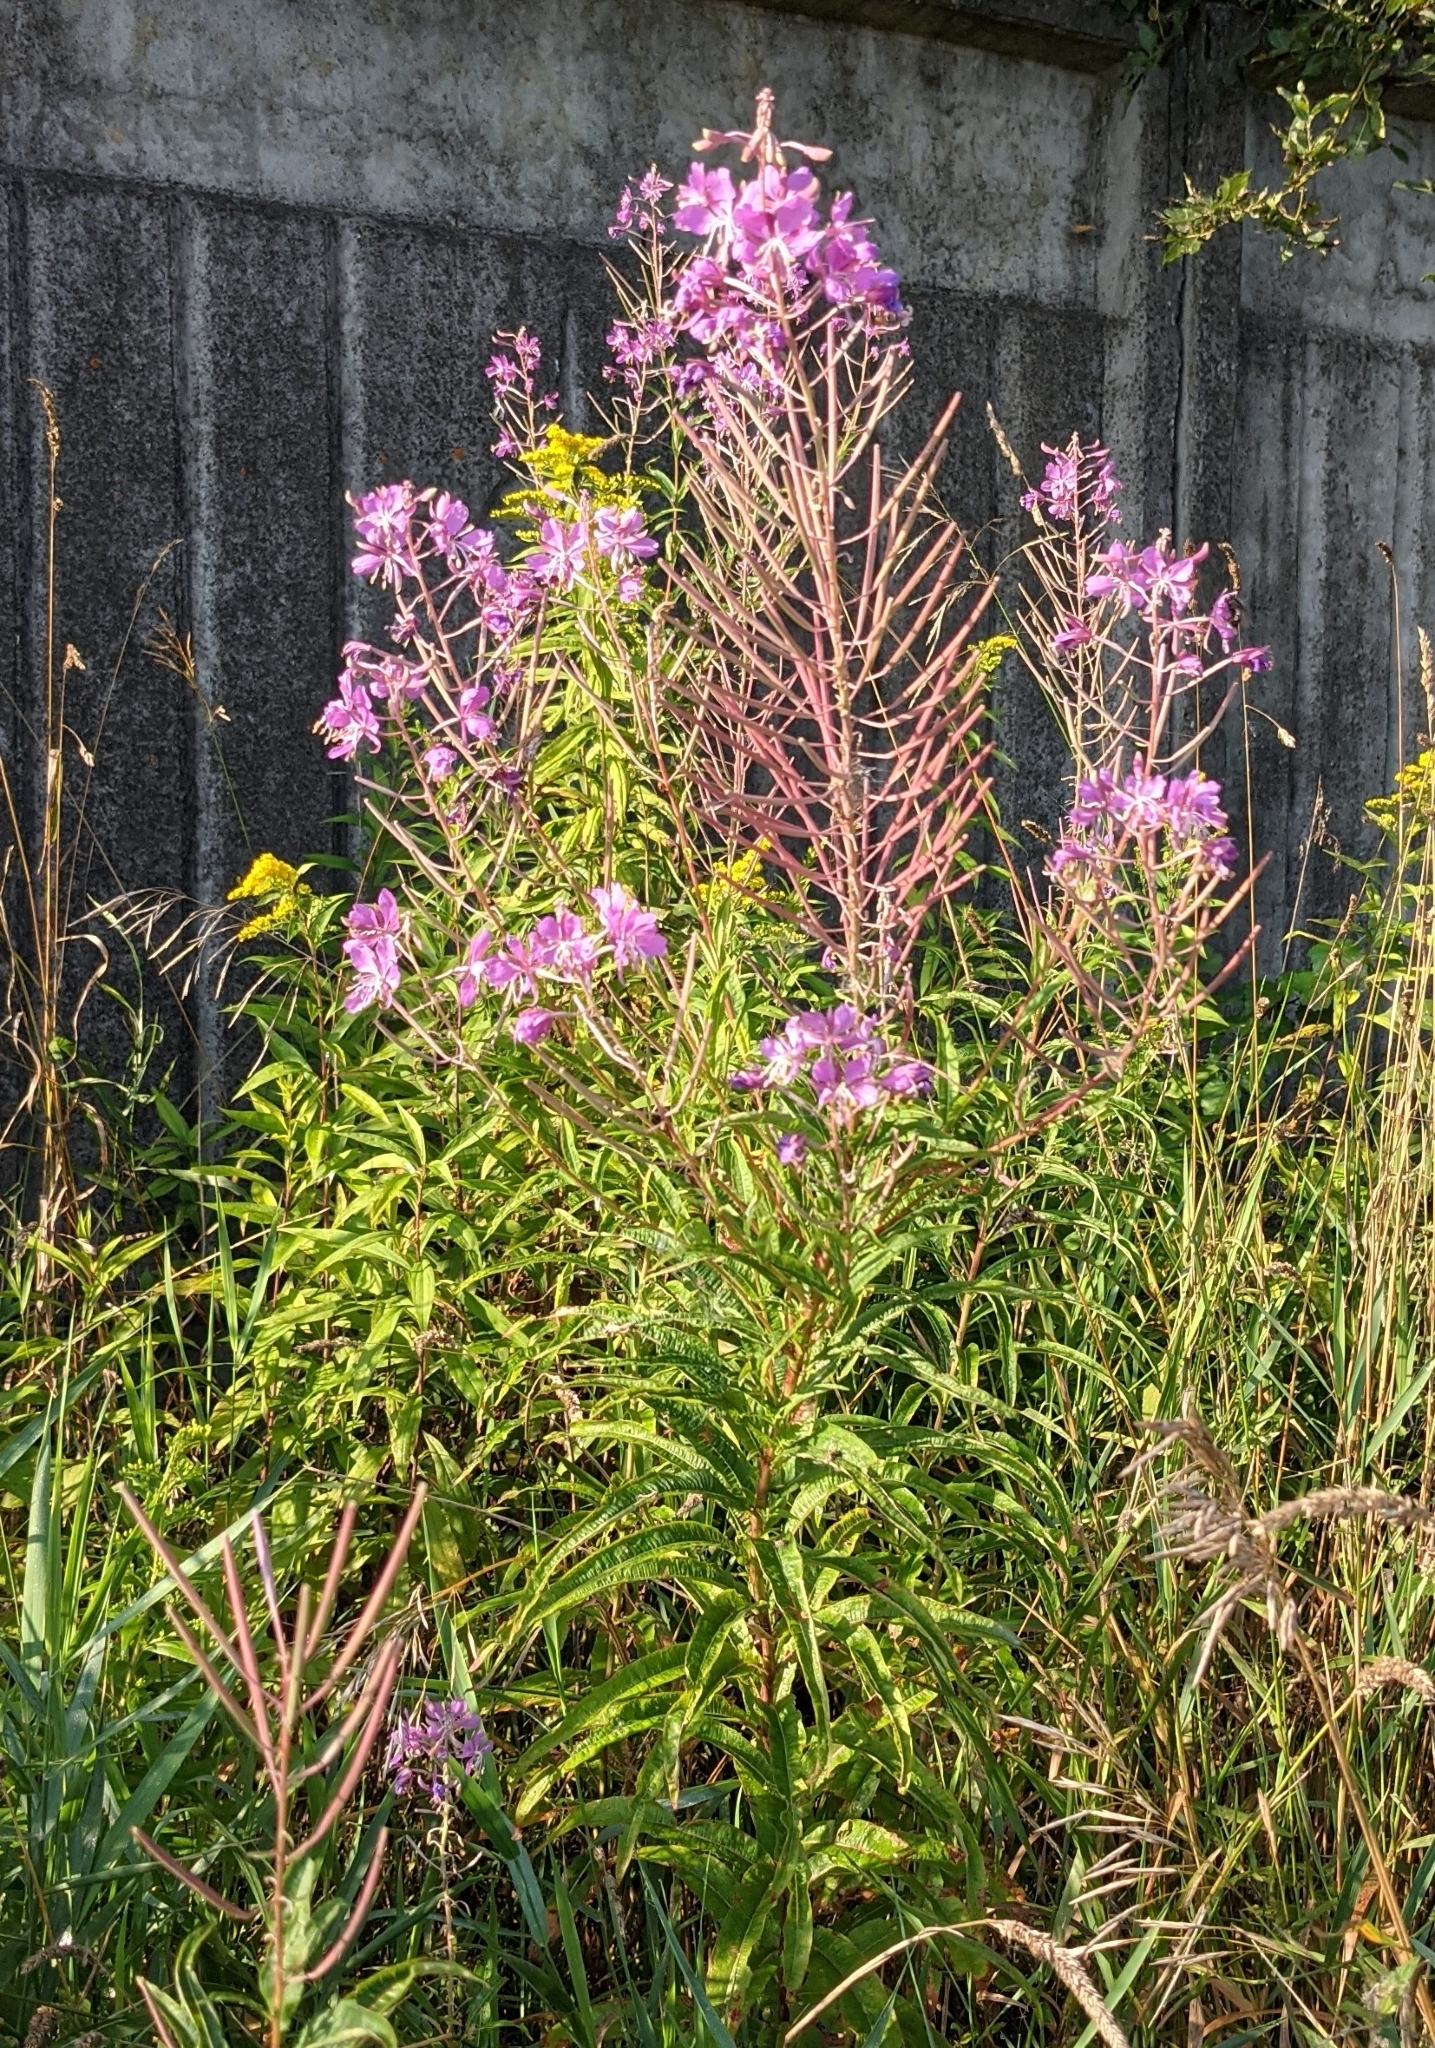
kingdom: Plantae
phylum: Tracheophyta
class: Magnoliopsida
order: Myrtales
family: Onagraceae
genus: Chamaenerion
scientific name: Chamaenerion angustifolium
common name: Fireweed
